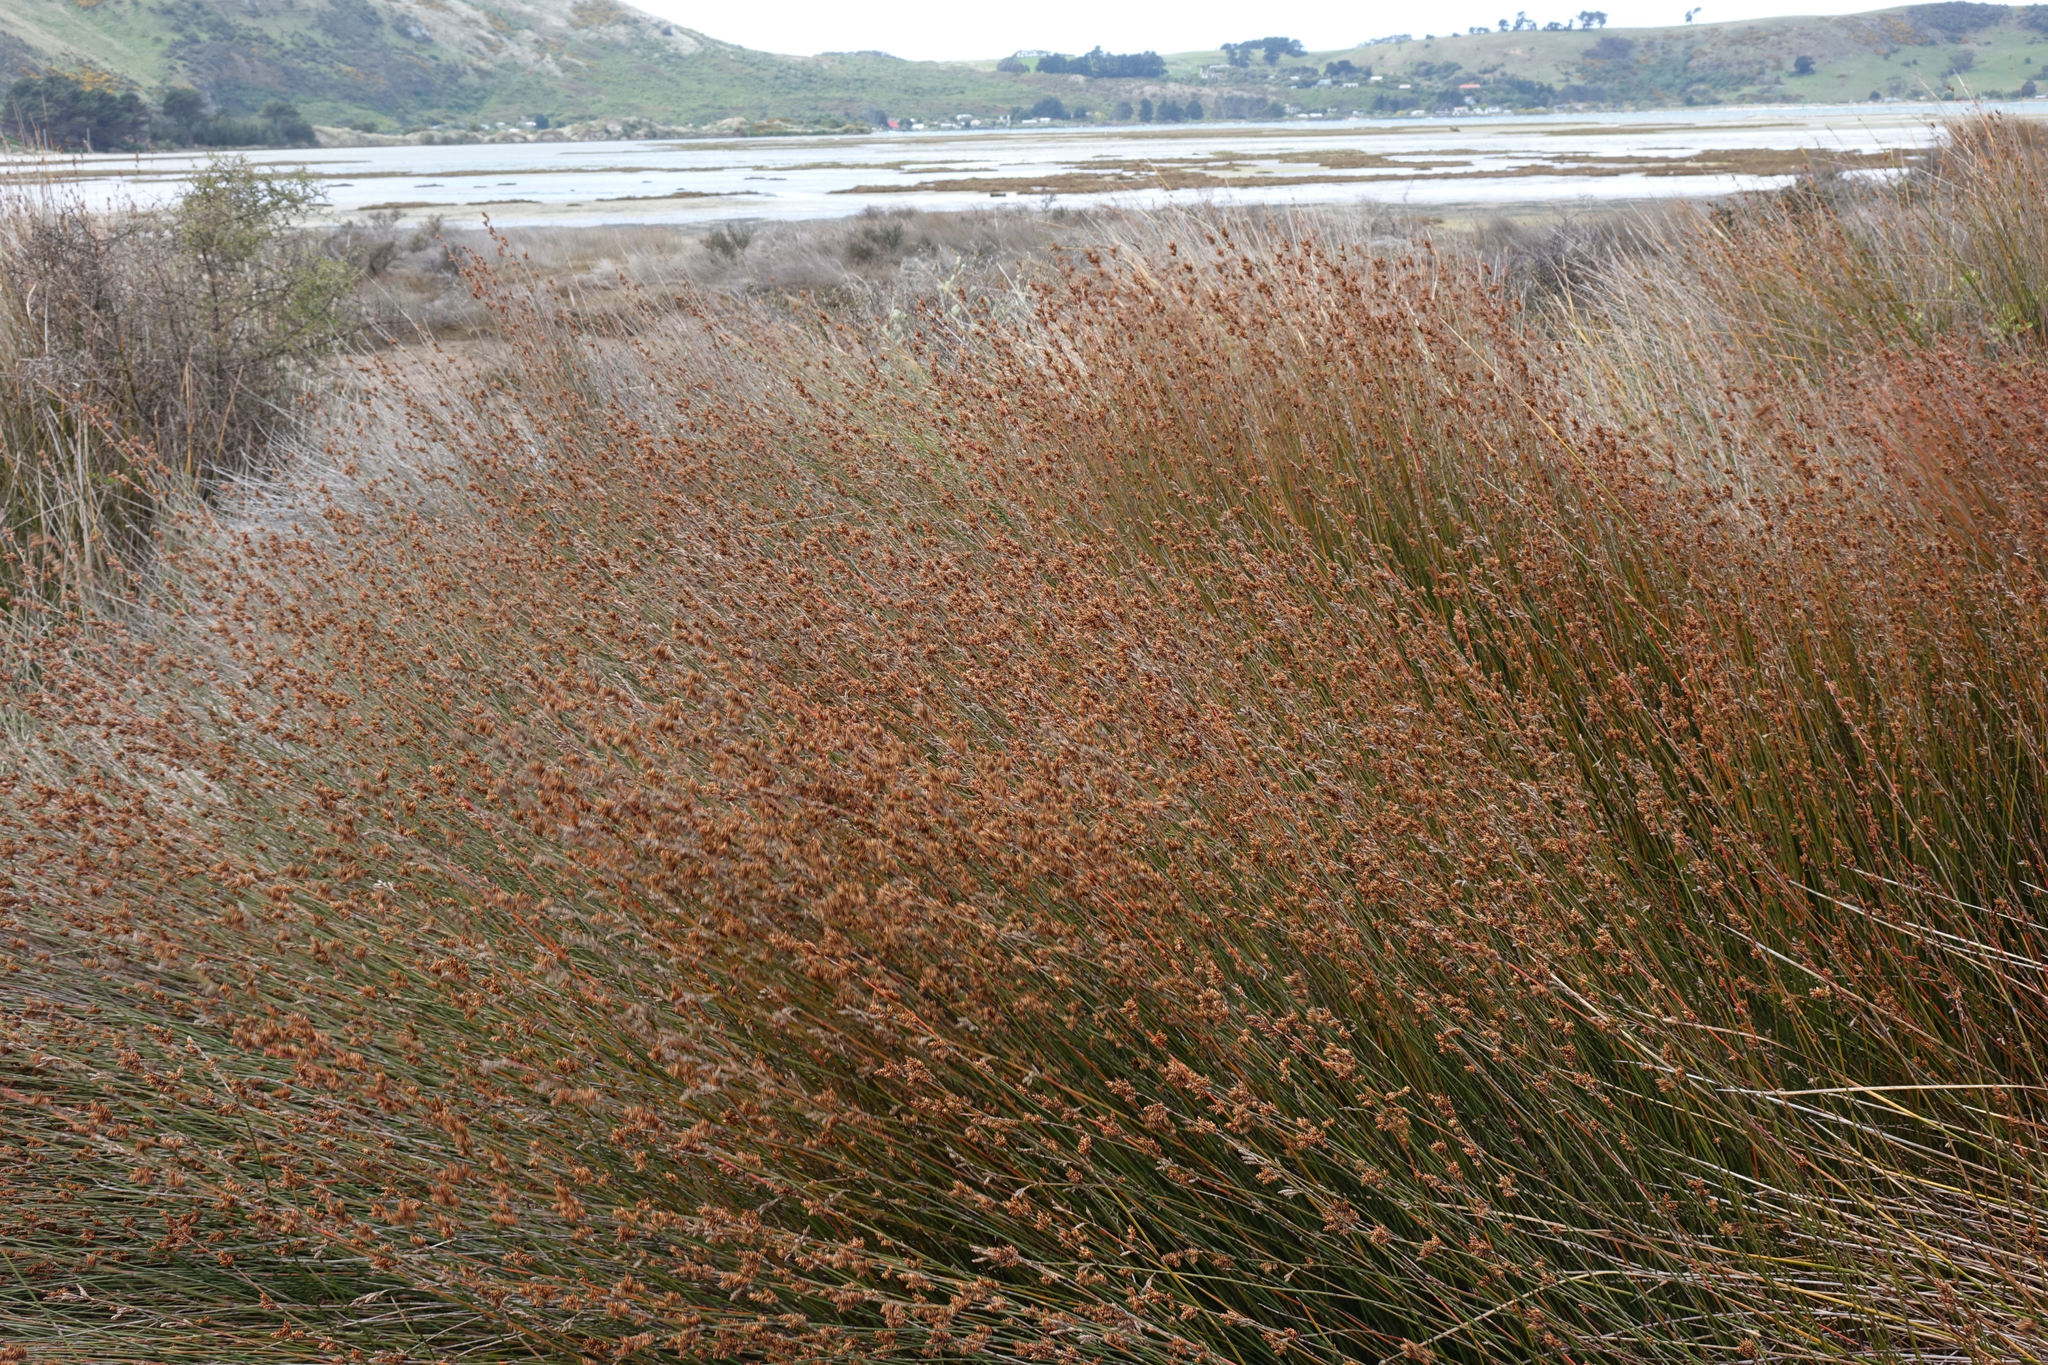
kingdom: Plantae
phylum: Tracheophyta
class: Liliopsida
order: Poales
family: Restionaceae
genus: Apodasmia
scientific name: Apodasmia similis
